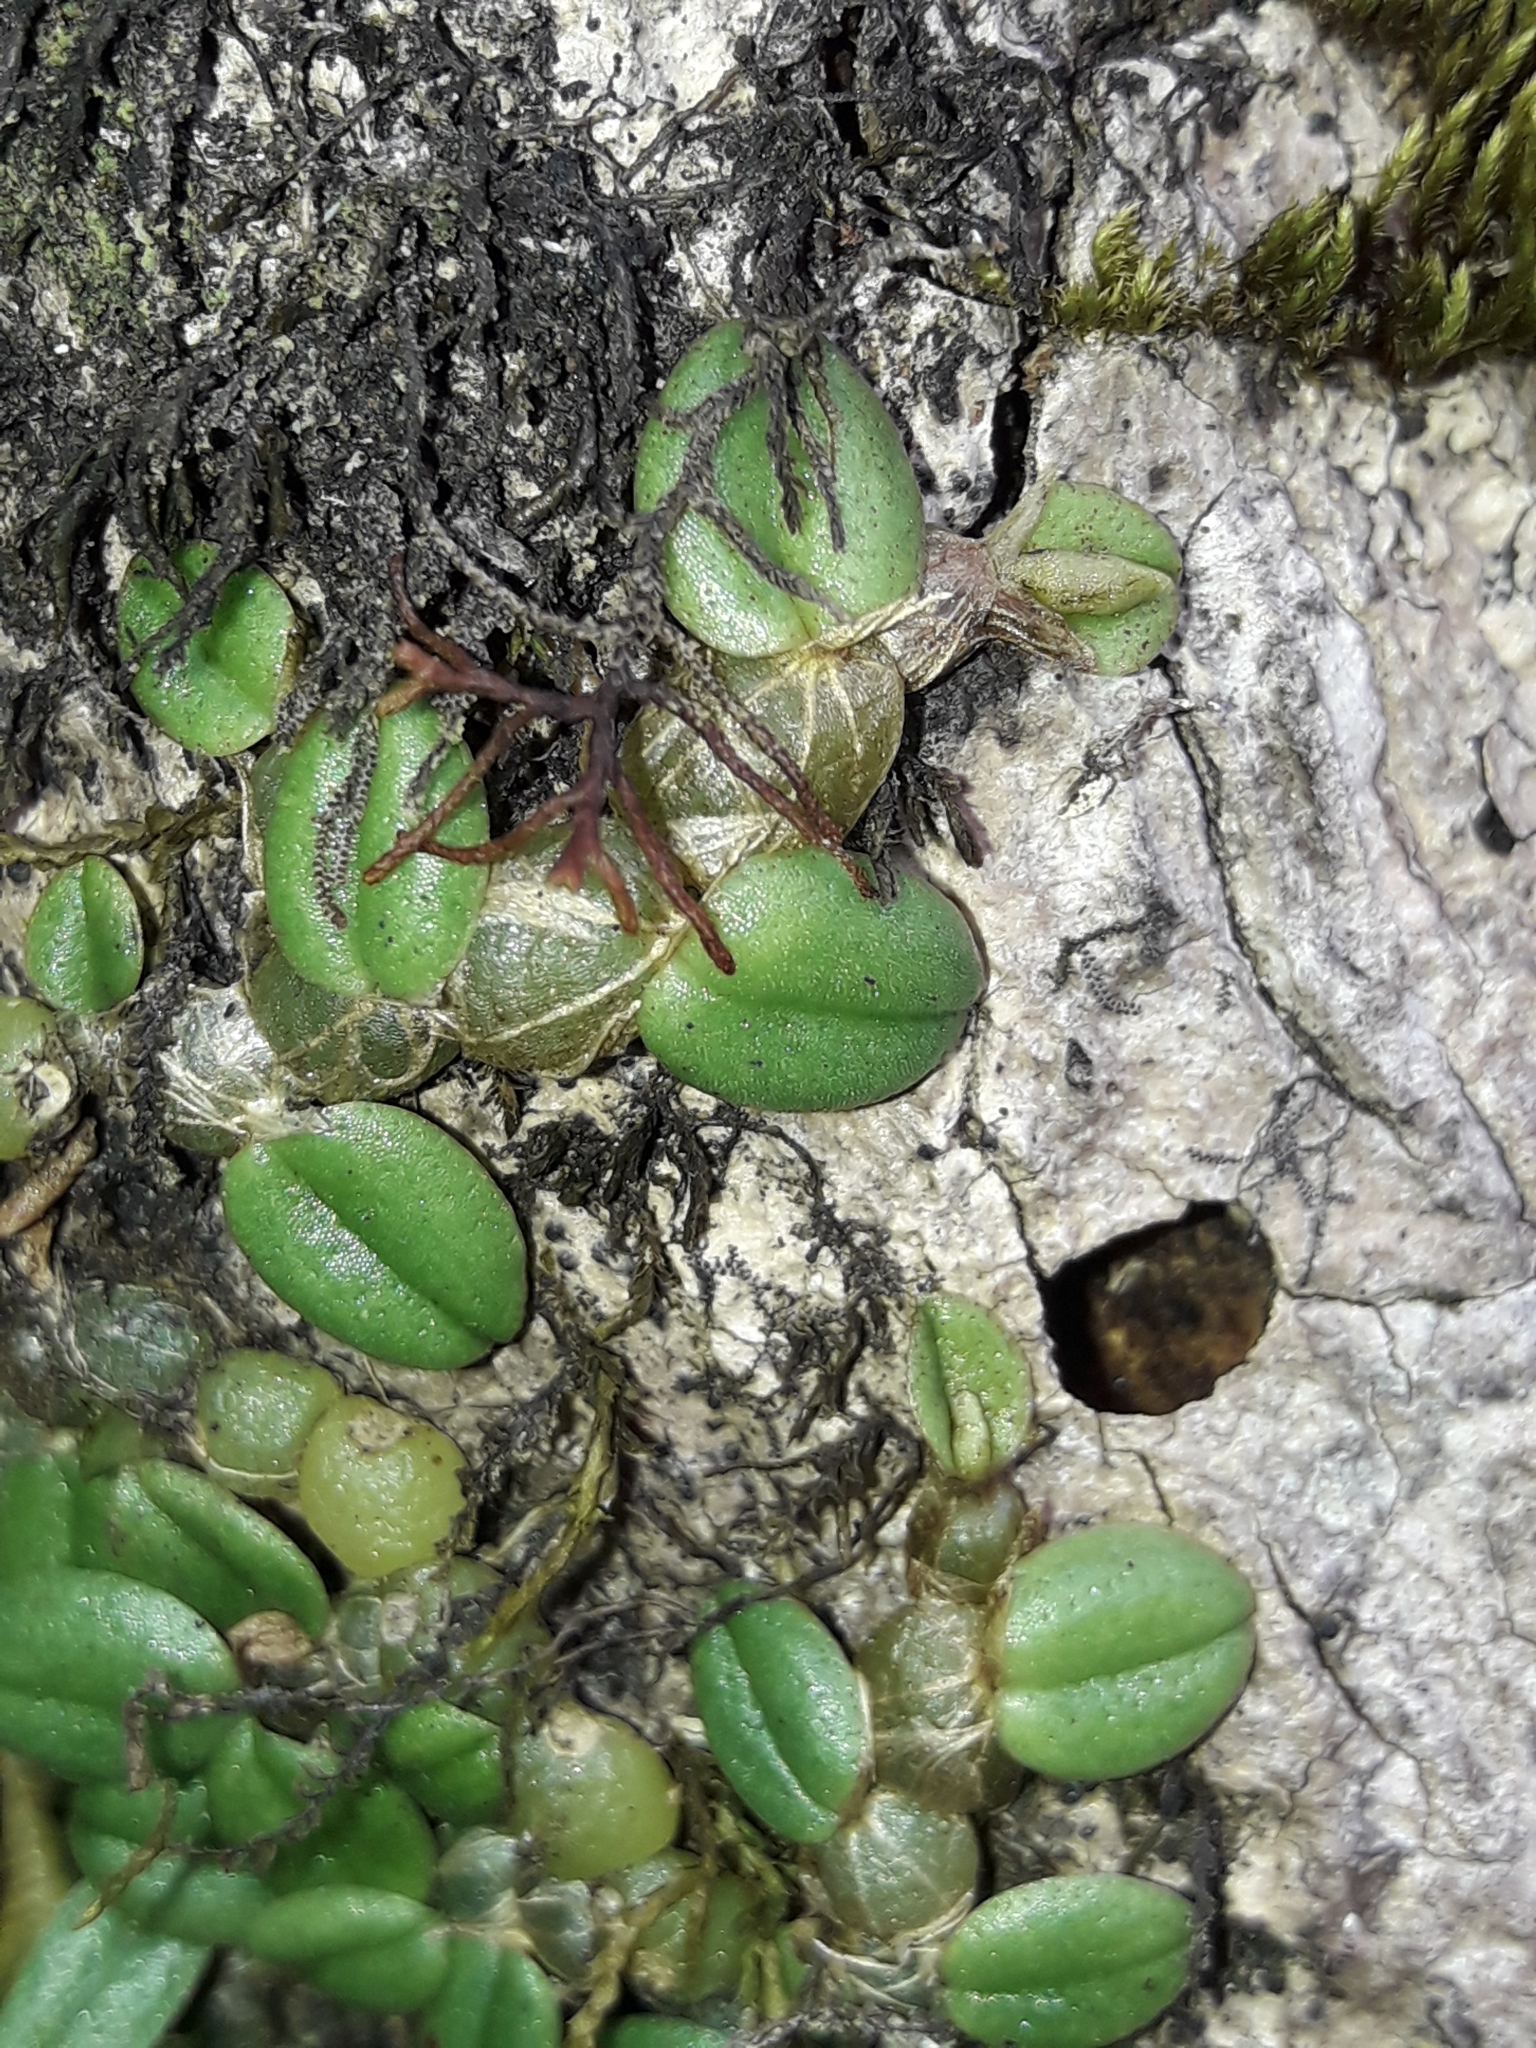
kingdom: Plantae
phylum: Tracheophyta
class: Liliopsida
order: Asparagales
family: Orchidaceae
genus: Porpax
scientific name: Porpax karikouyensis
